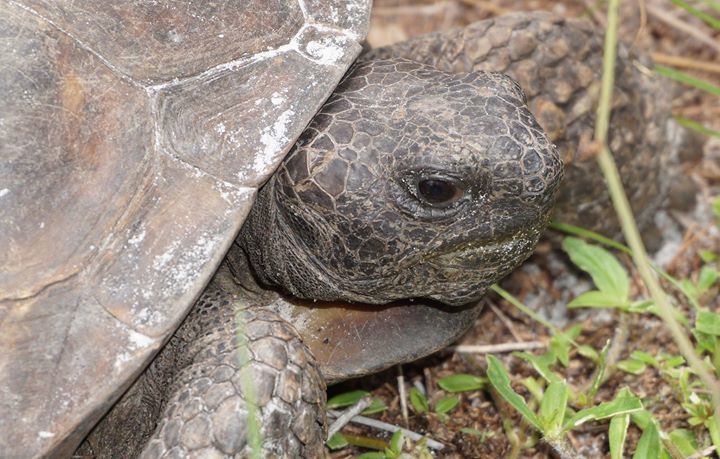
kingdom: Animalia
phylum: Chordata
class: Testudines
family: Testudinidae
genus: Gopherus
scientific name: Gopherus polyphemus
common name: Florida gopher tortoise
